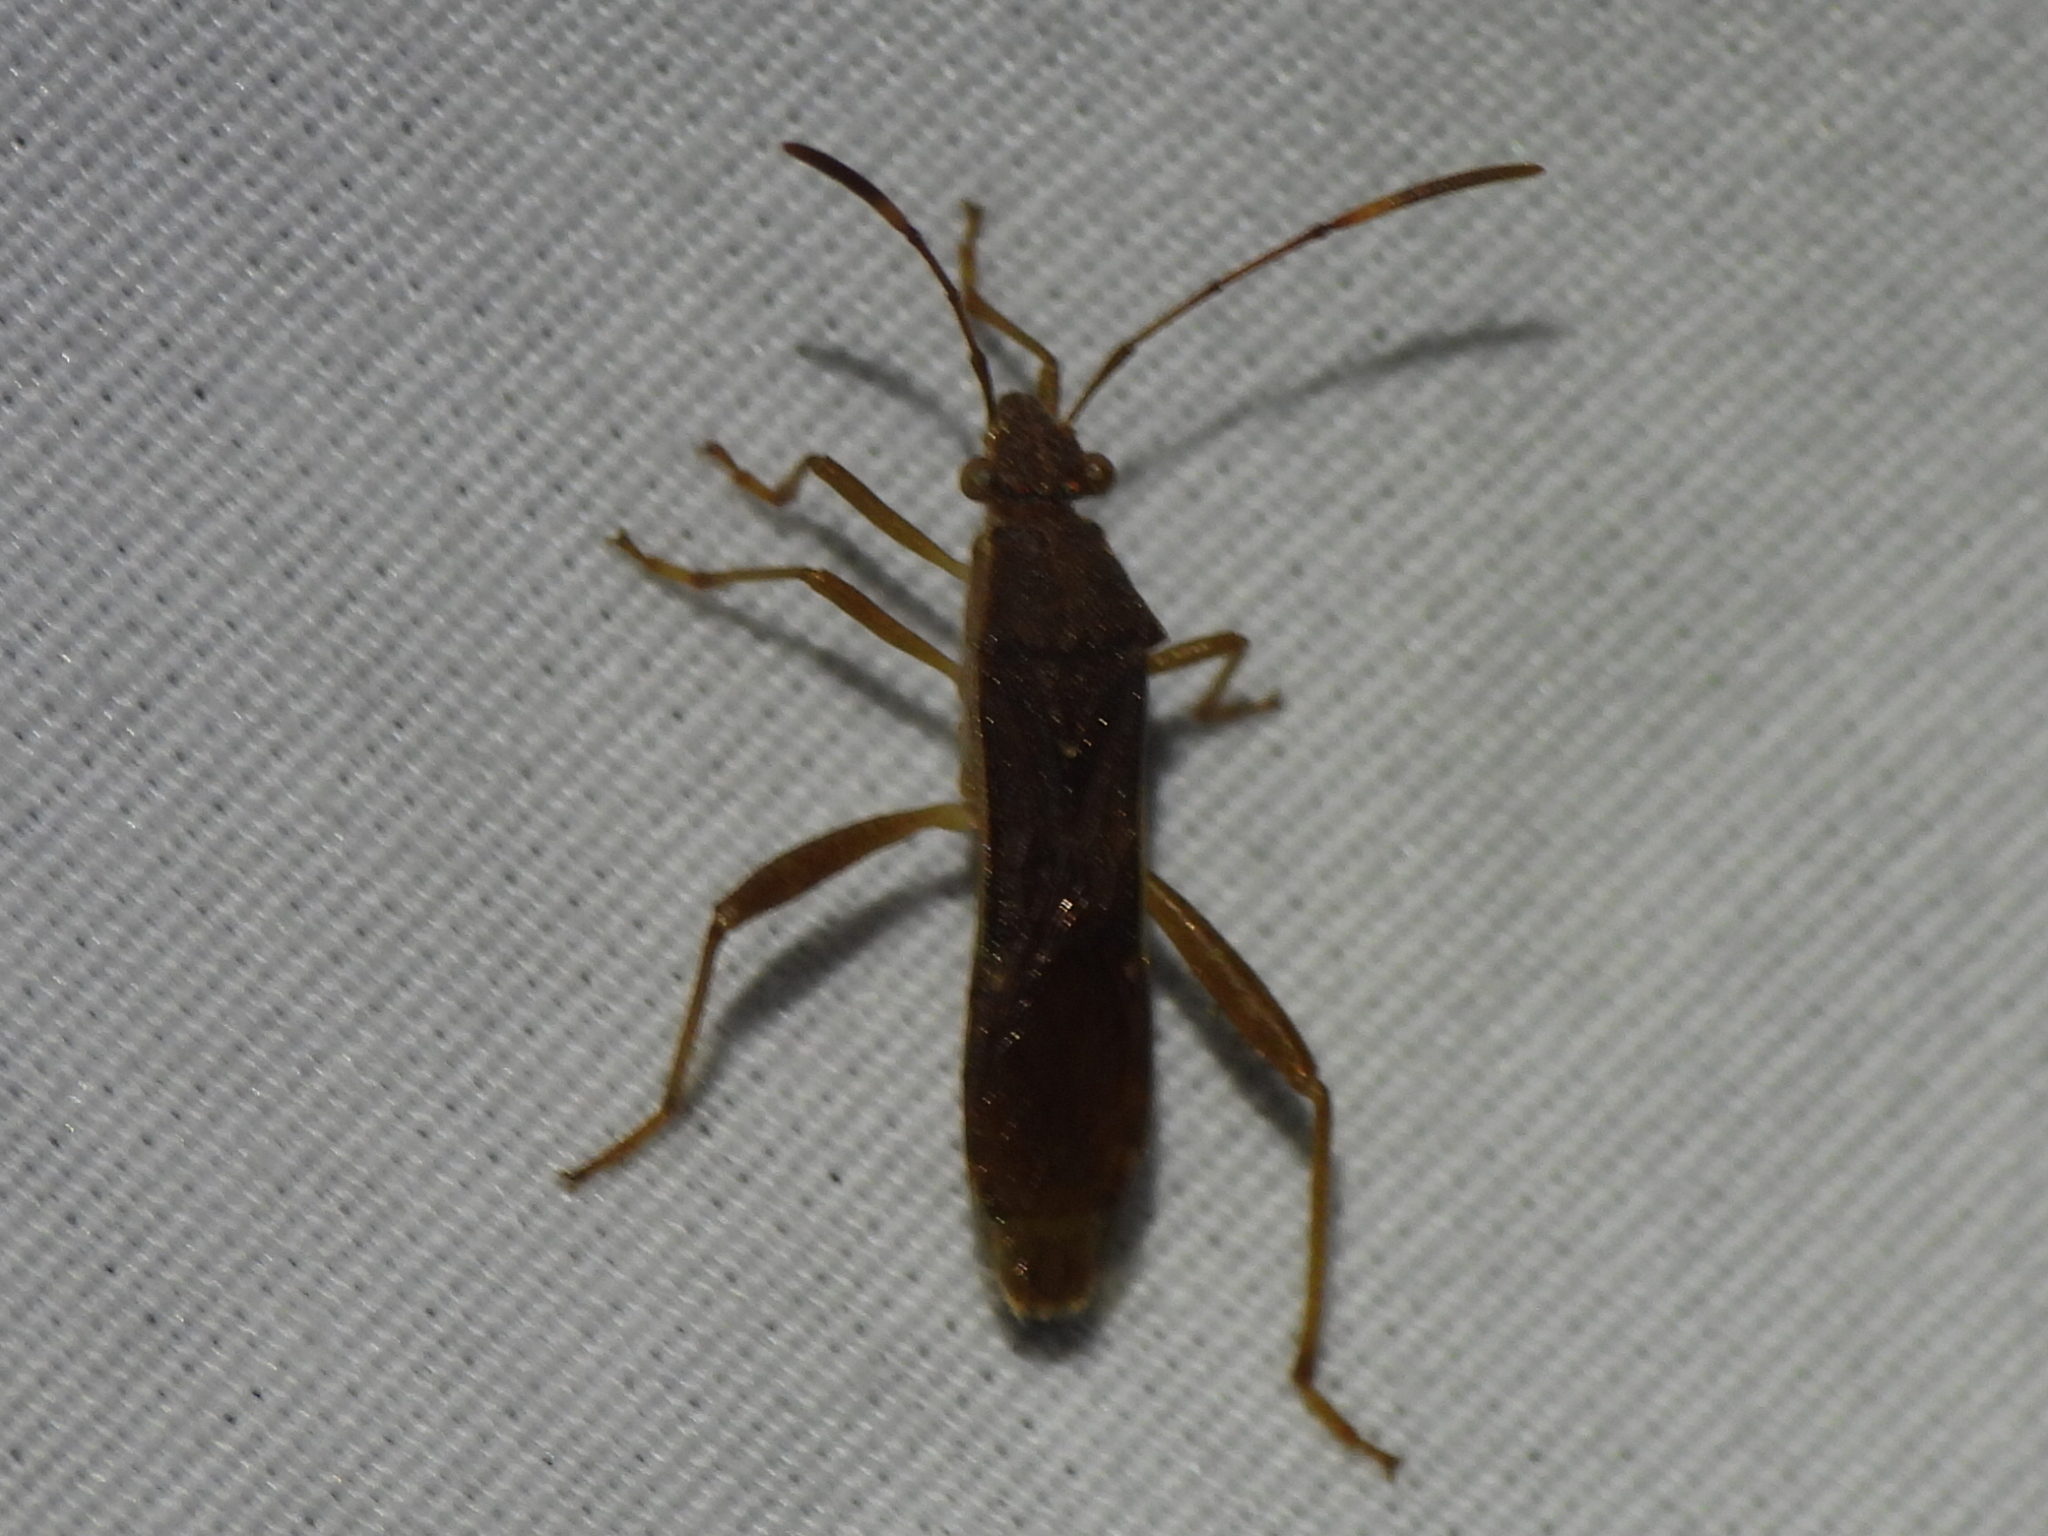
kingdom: Animalia
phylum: Arthropoda
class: Insecta
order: Hemiptera
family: Alydidae
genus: Burtinus
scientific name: Burtinus notatipennis
